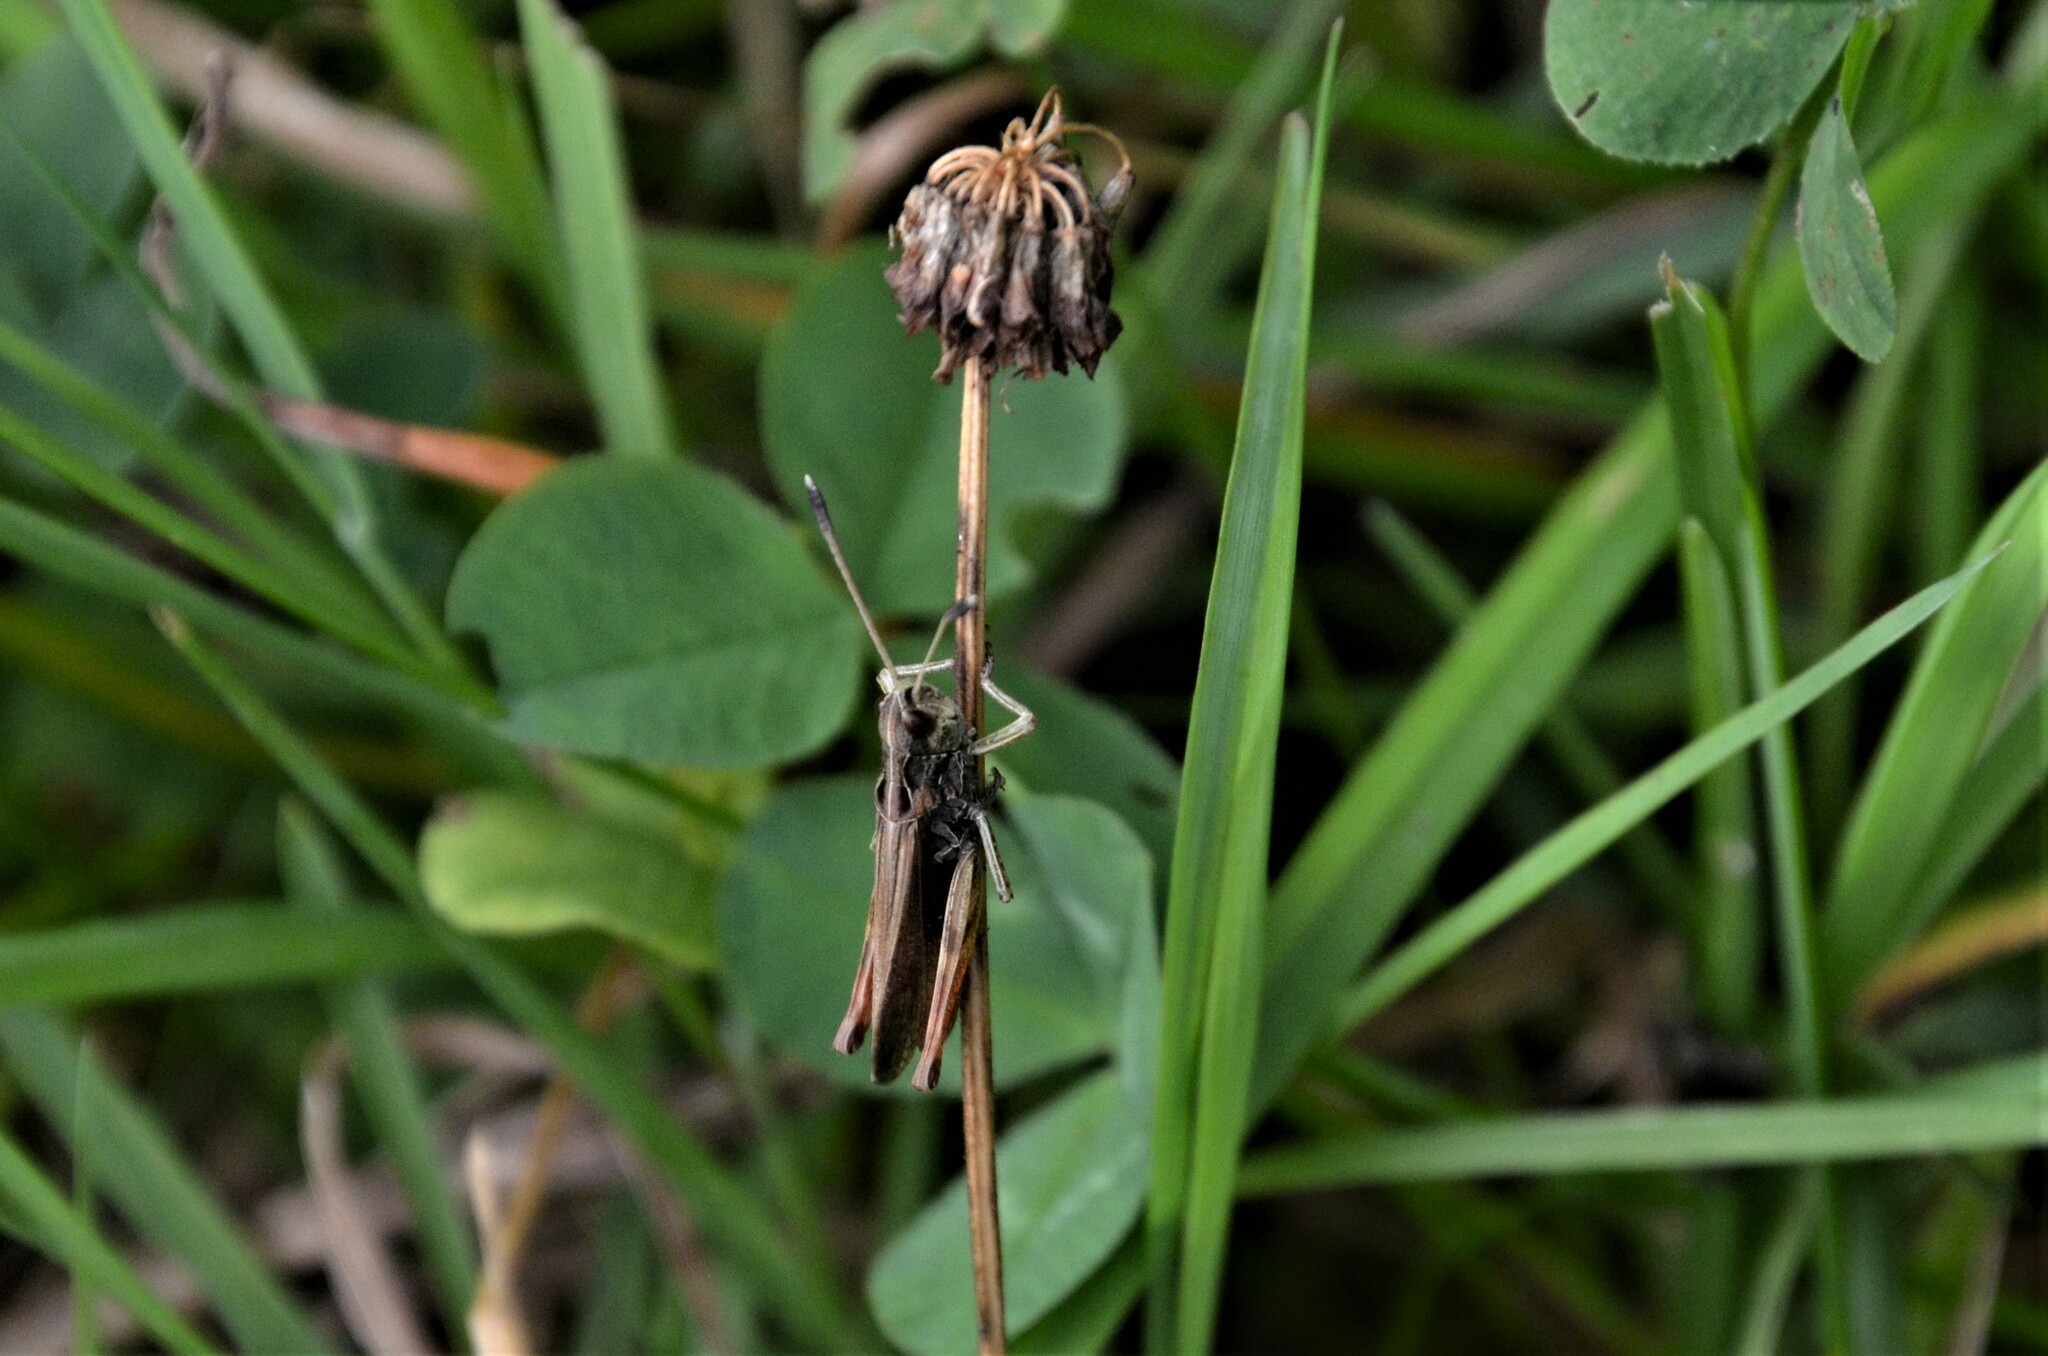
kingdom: Animalia
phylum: Arthropoda
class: Insecta
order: Orthoptera
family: Acrididae
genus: Gomphocerippus
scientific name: Gomphocerippus rufus
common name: Rufous grasshopper
